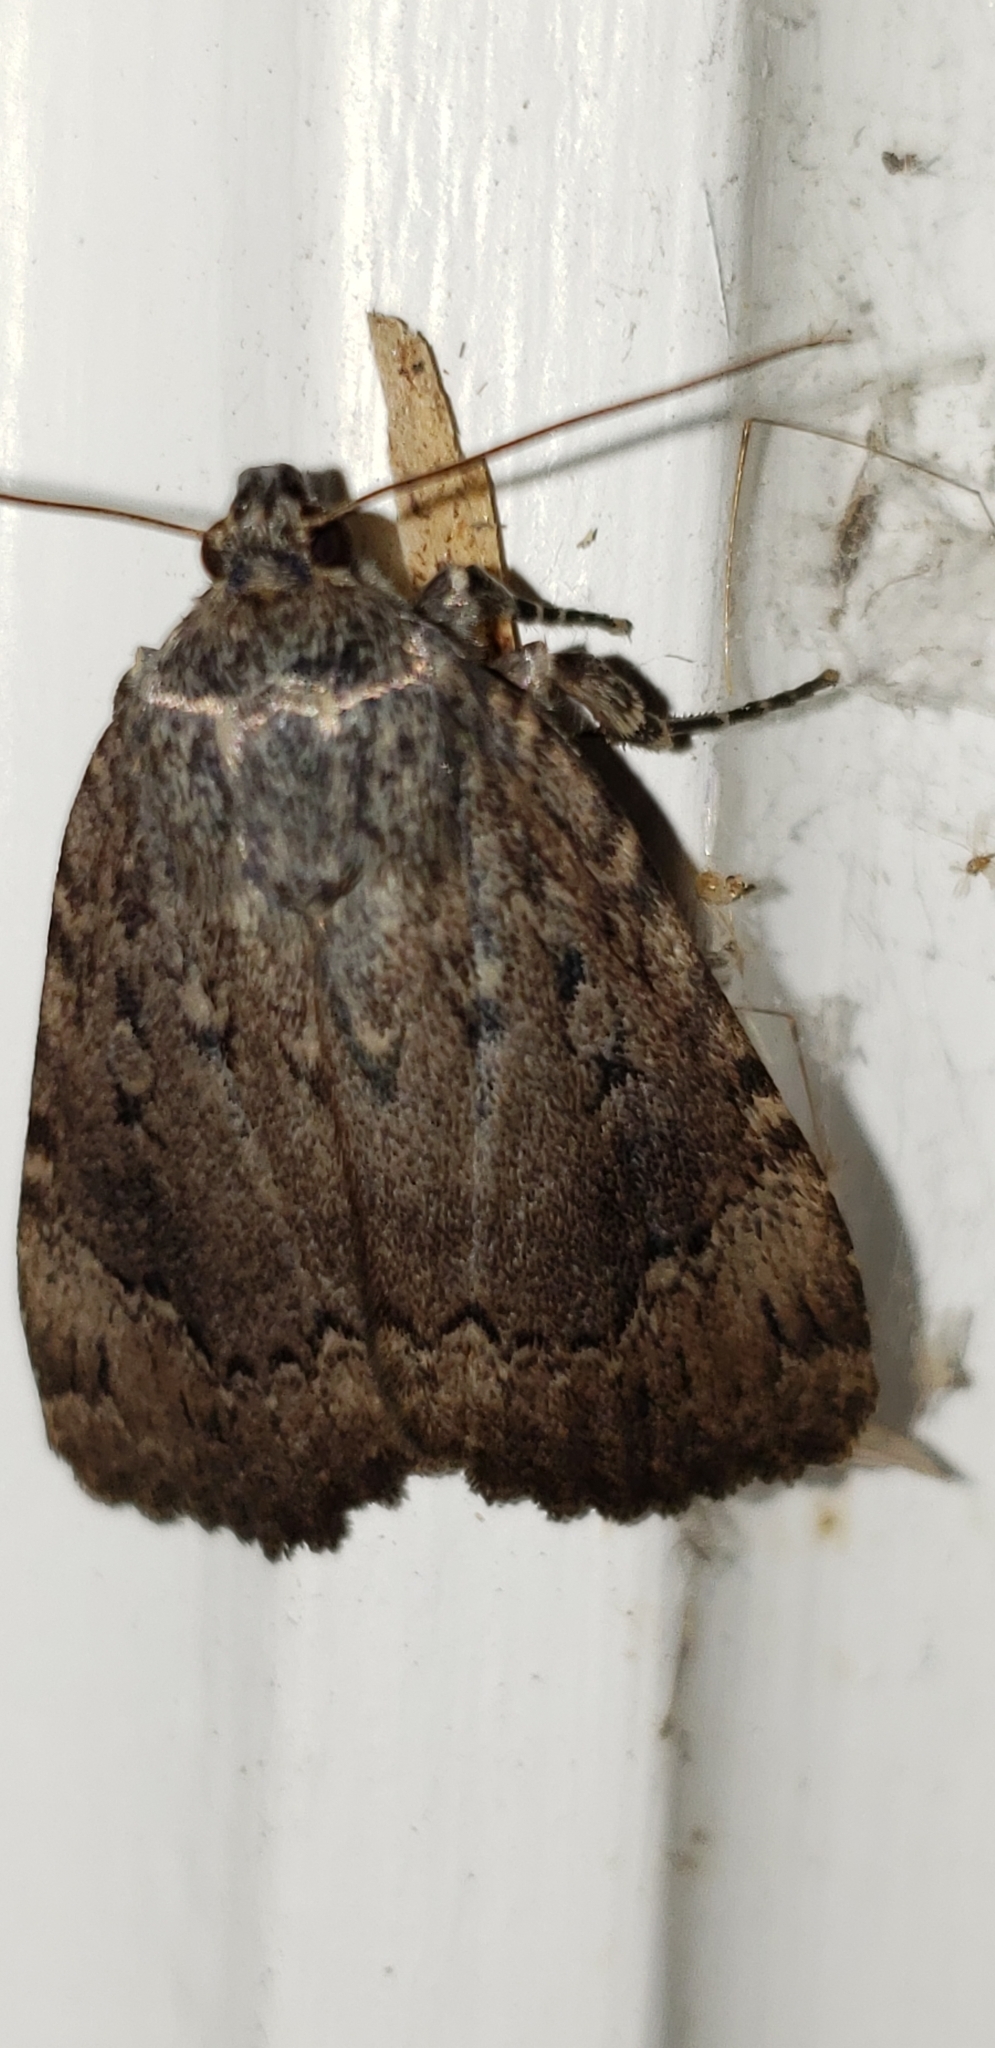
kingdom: Animalia
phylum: Arthropoda
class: Insecta
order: Lepidoptera
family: Noctuidae
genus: Amphipyra
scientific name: Amphipyra pyramidoides
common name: American copper underwing
